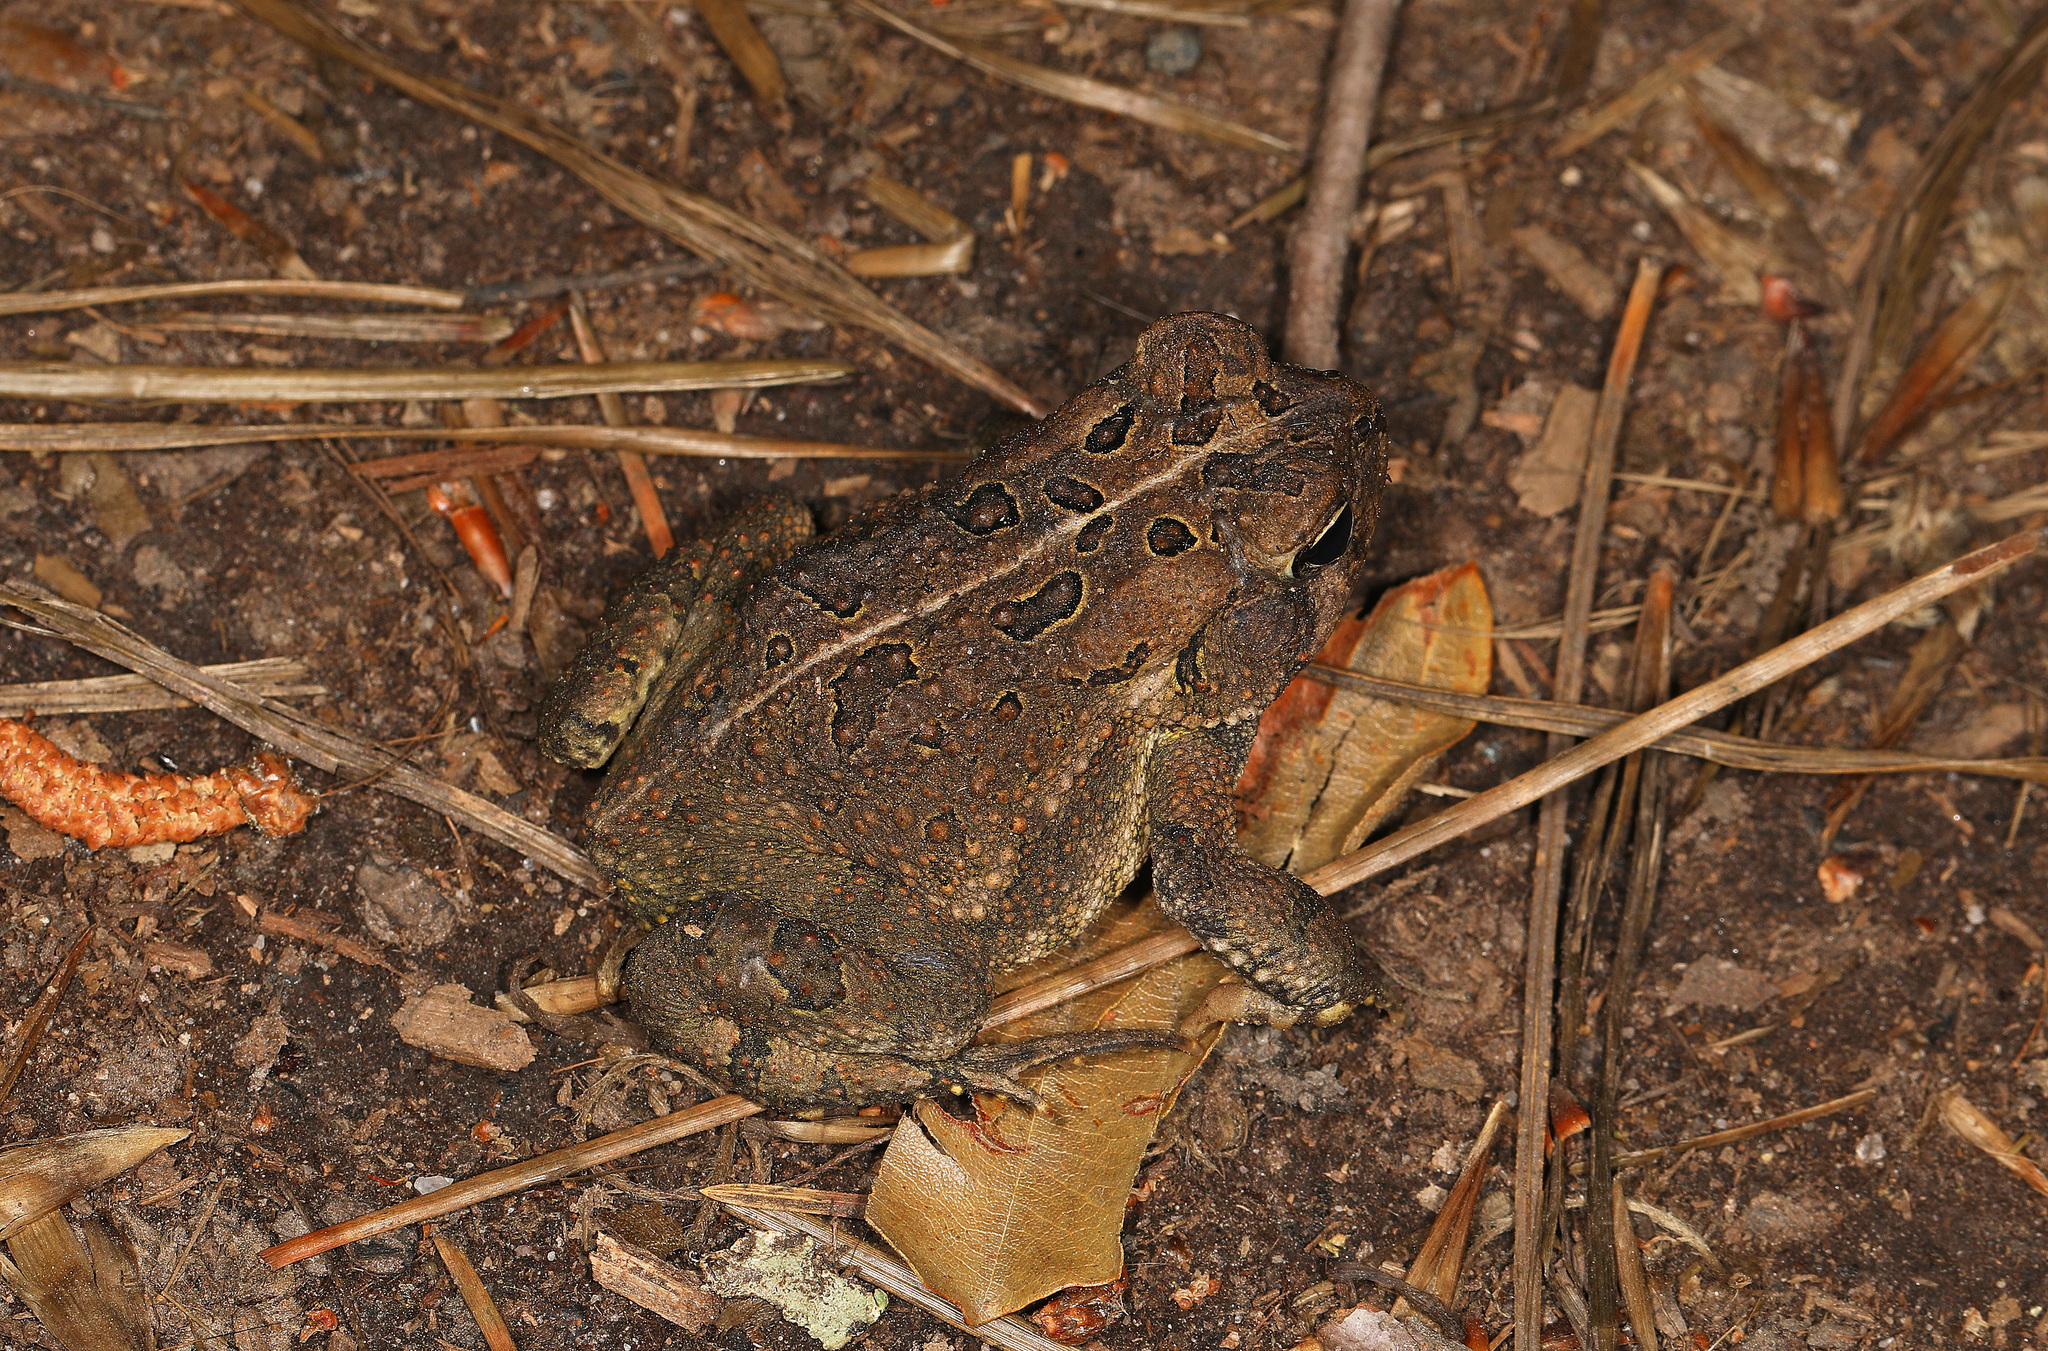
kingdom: Animalia
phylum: Chordata
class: Amphibia
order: Anura
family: Bufonidae
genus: Anaxyrus
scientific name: Anaxyrus fowleri
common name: Fowler's toad
